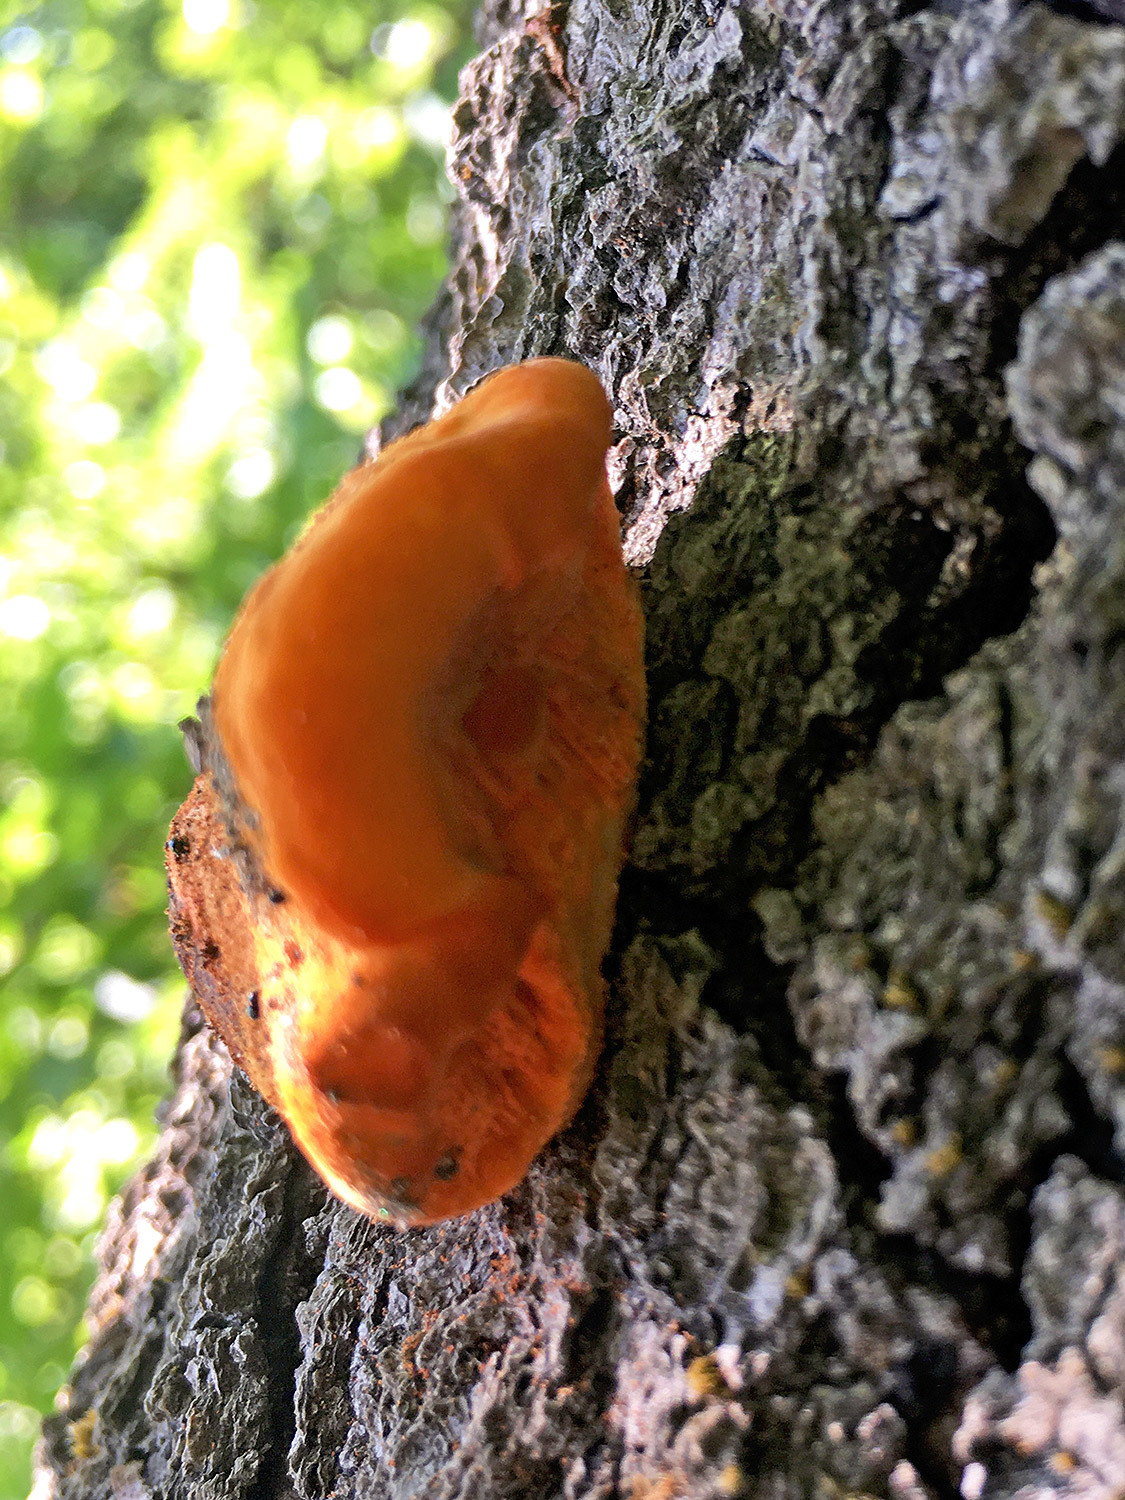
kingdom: Fungi
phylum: Basidiomycota
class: Agaricomycetes
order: Polyporales
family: Polyporaceae
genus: Trametes
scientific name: Trametes cinnabarina
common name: Northern cinnabar polypore
